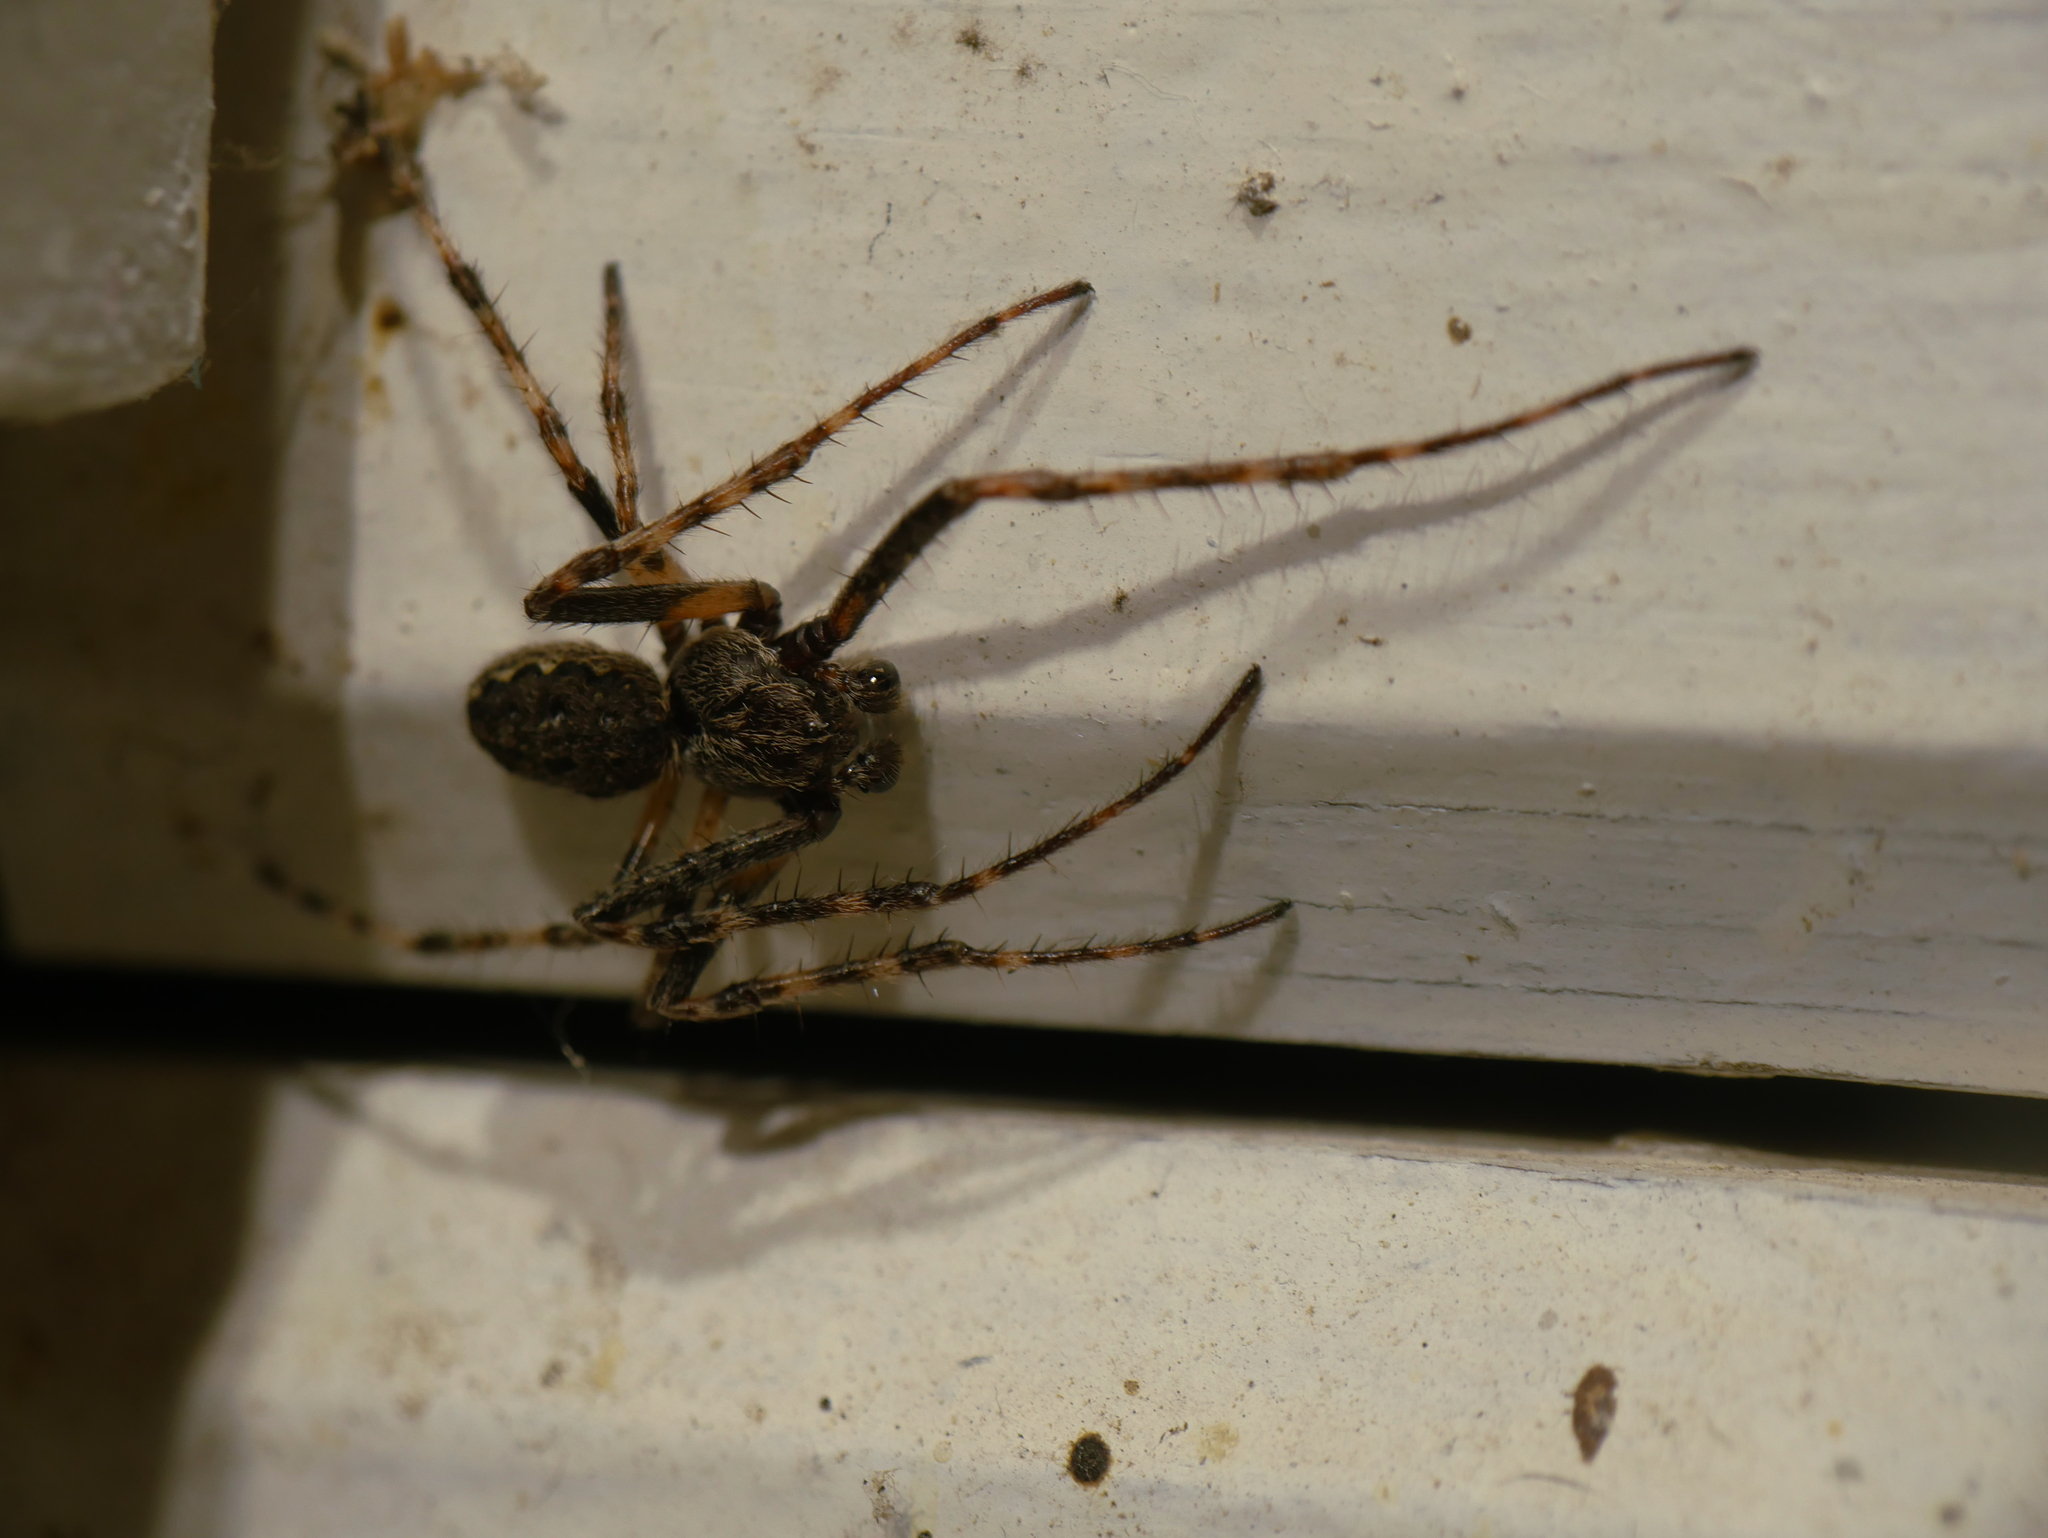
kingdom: Animalia
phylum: Arthropoda
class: Arachnida
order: Araneae
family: Araneidae
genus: Nuctenea
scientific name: Nuctenea umbratica
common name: Toad spider
